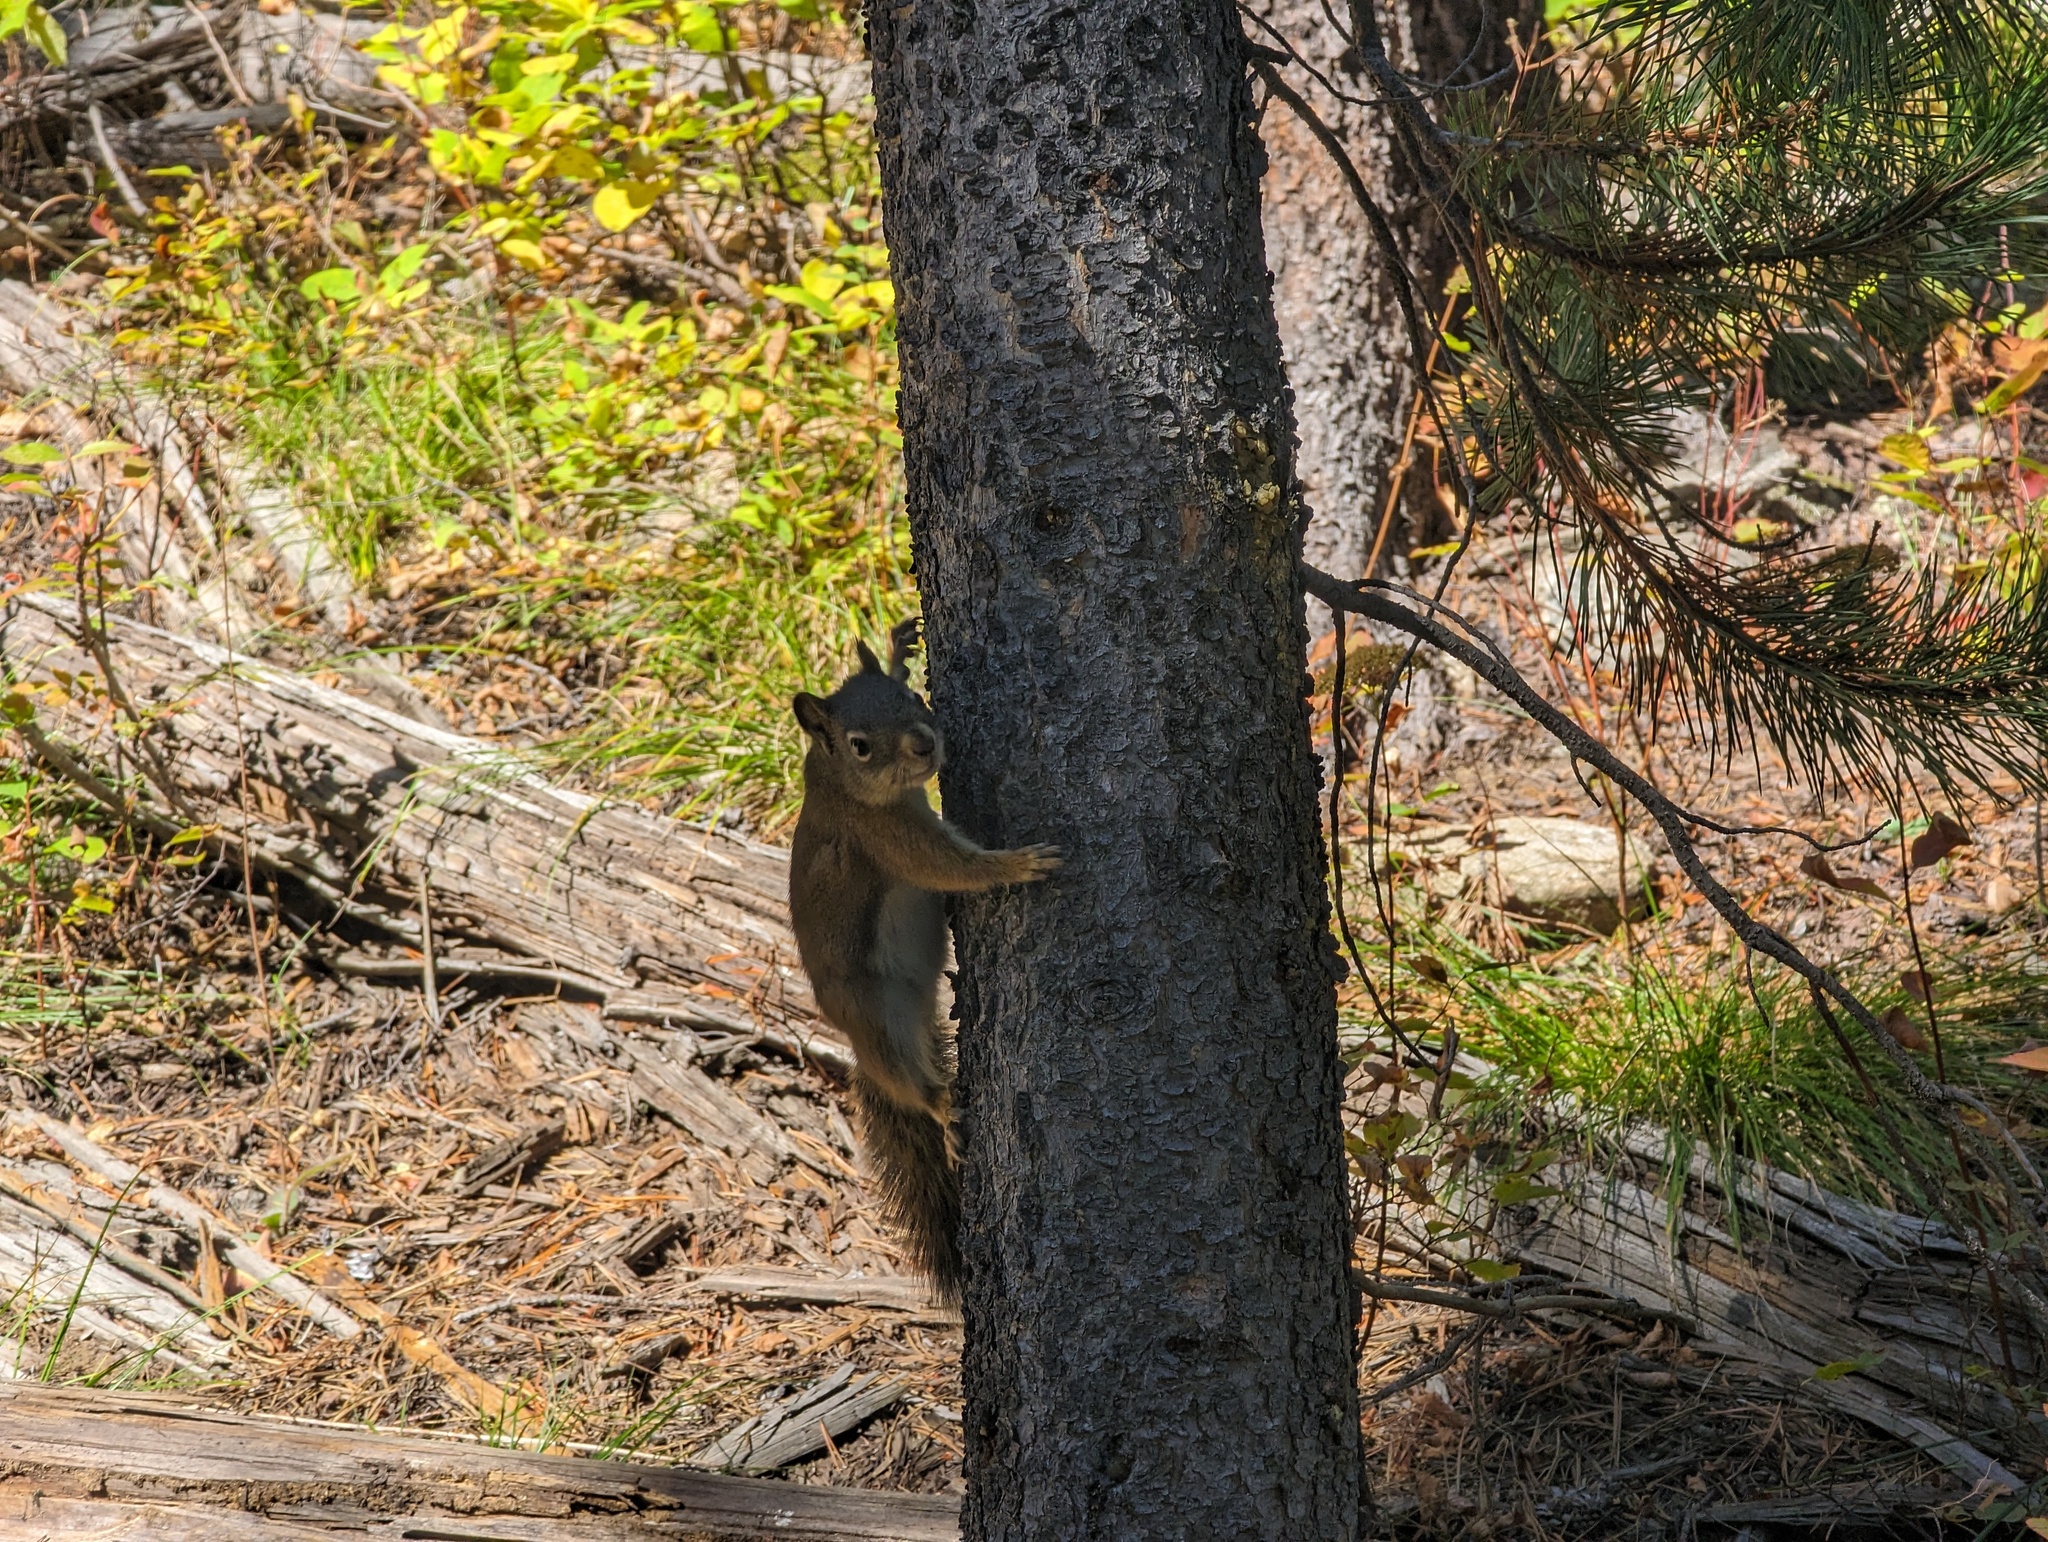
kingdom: Animalia
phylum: Chordata
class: Mammalia
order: Rodentia
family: Sciuridae
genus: Tamiasciurus
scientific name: Tamiasciurus hudsonicus
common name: Red squirrel
